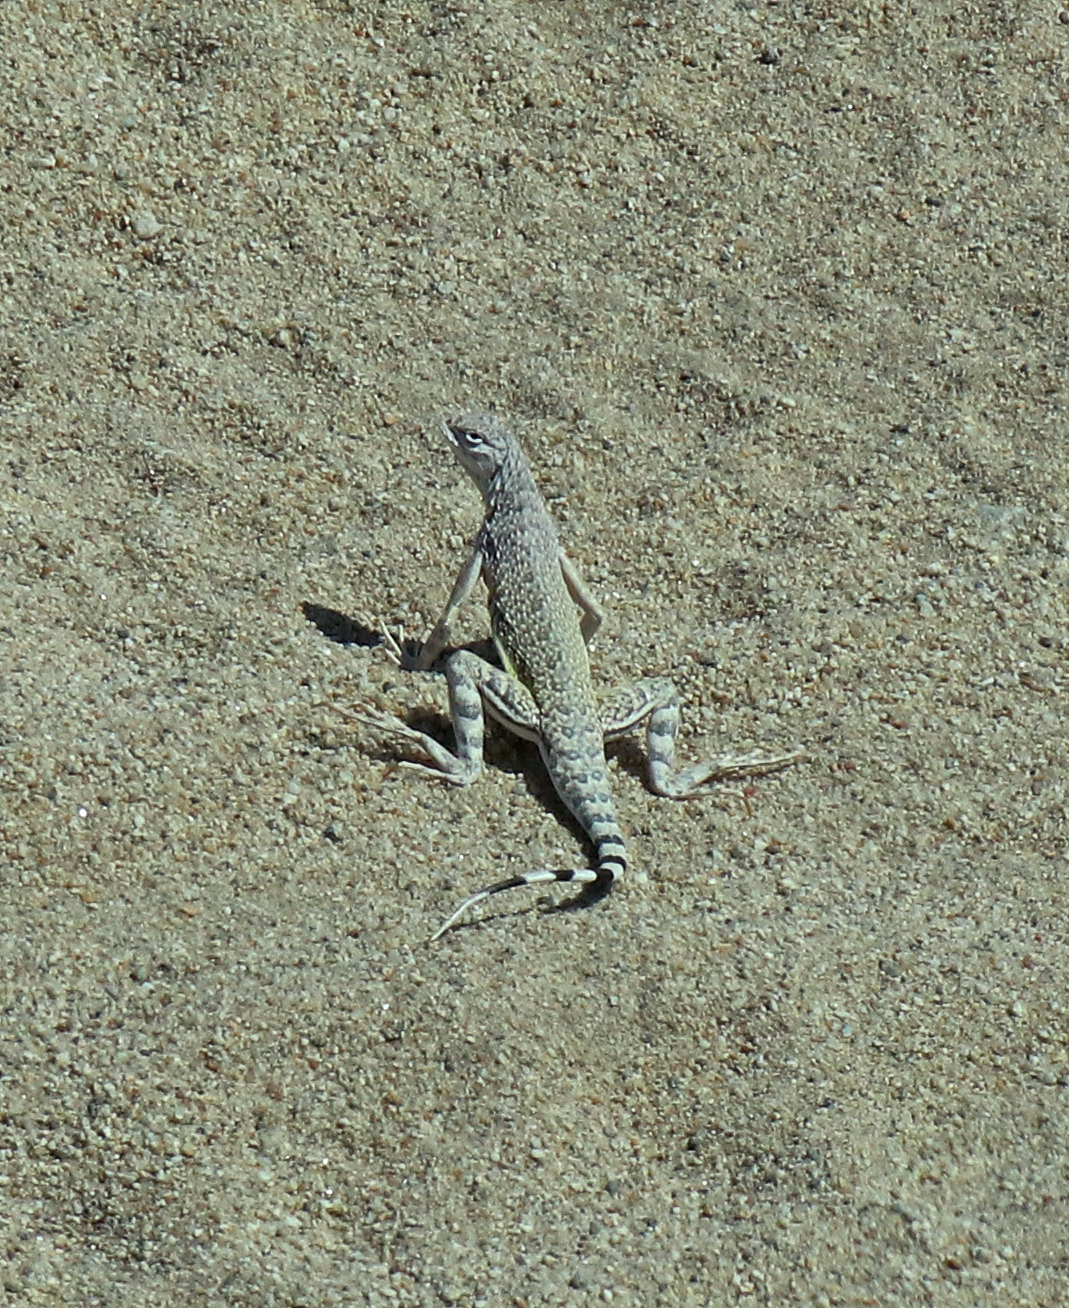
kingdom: Animalia
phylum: Chordata
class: Squamata
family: Phrynosomatidae
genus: Callisaurus
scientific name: Callisaurus draconoides
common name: Zebra-tailed lizard
